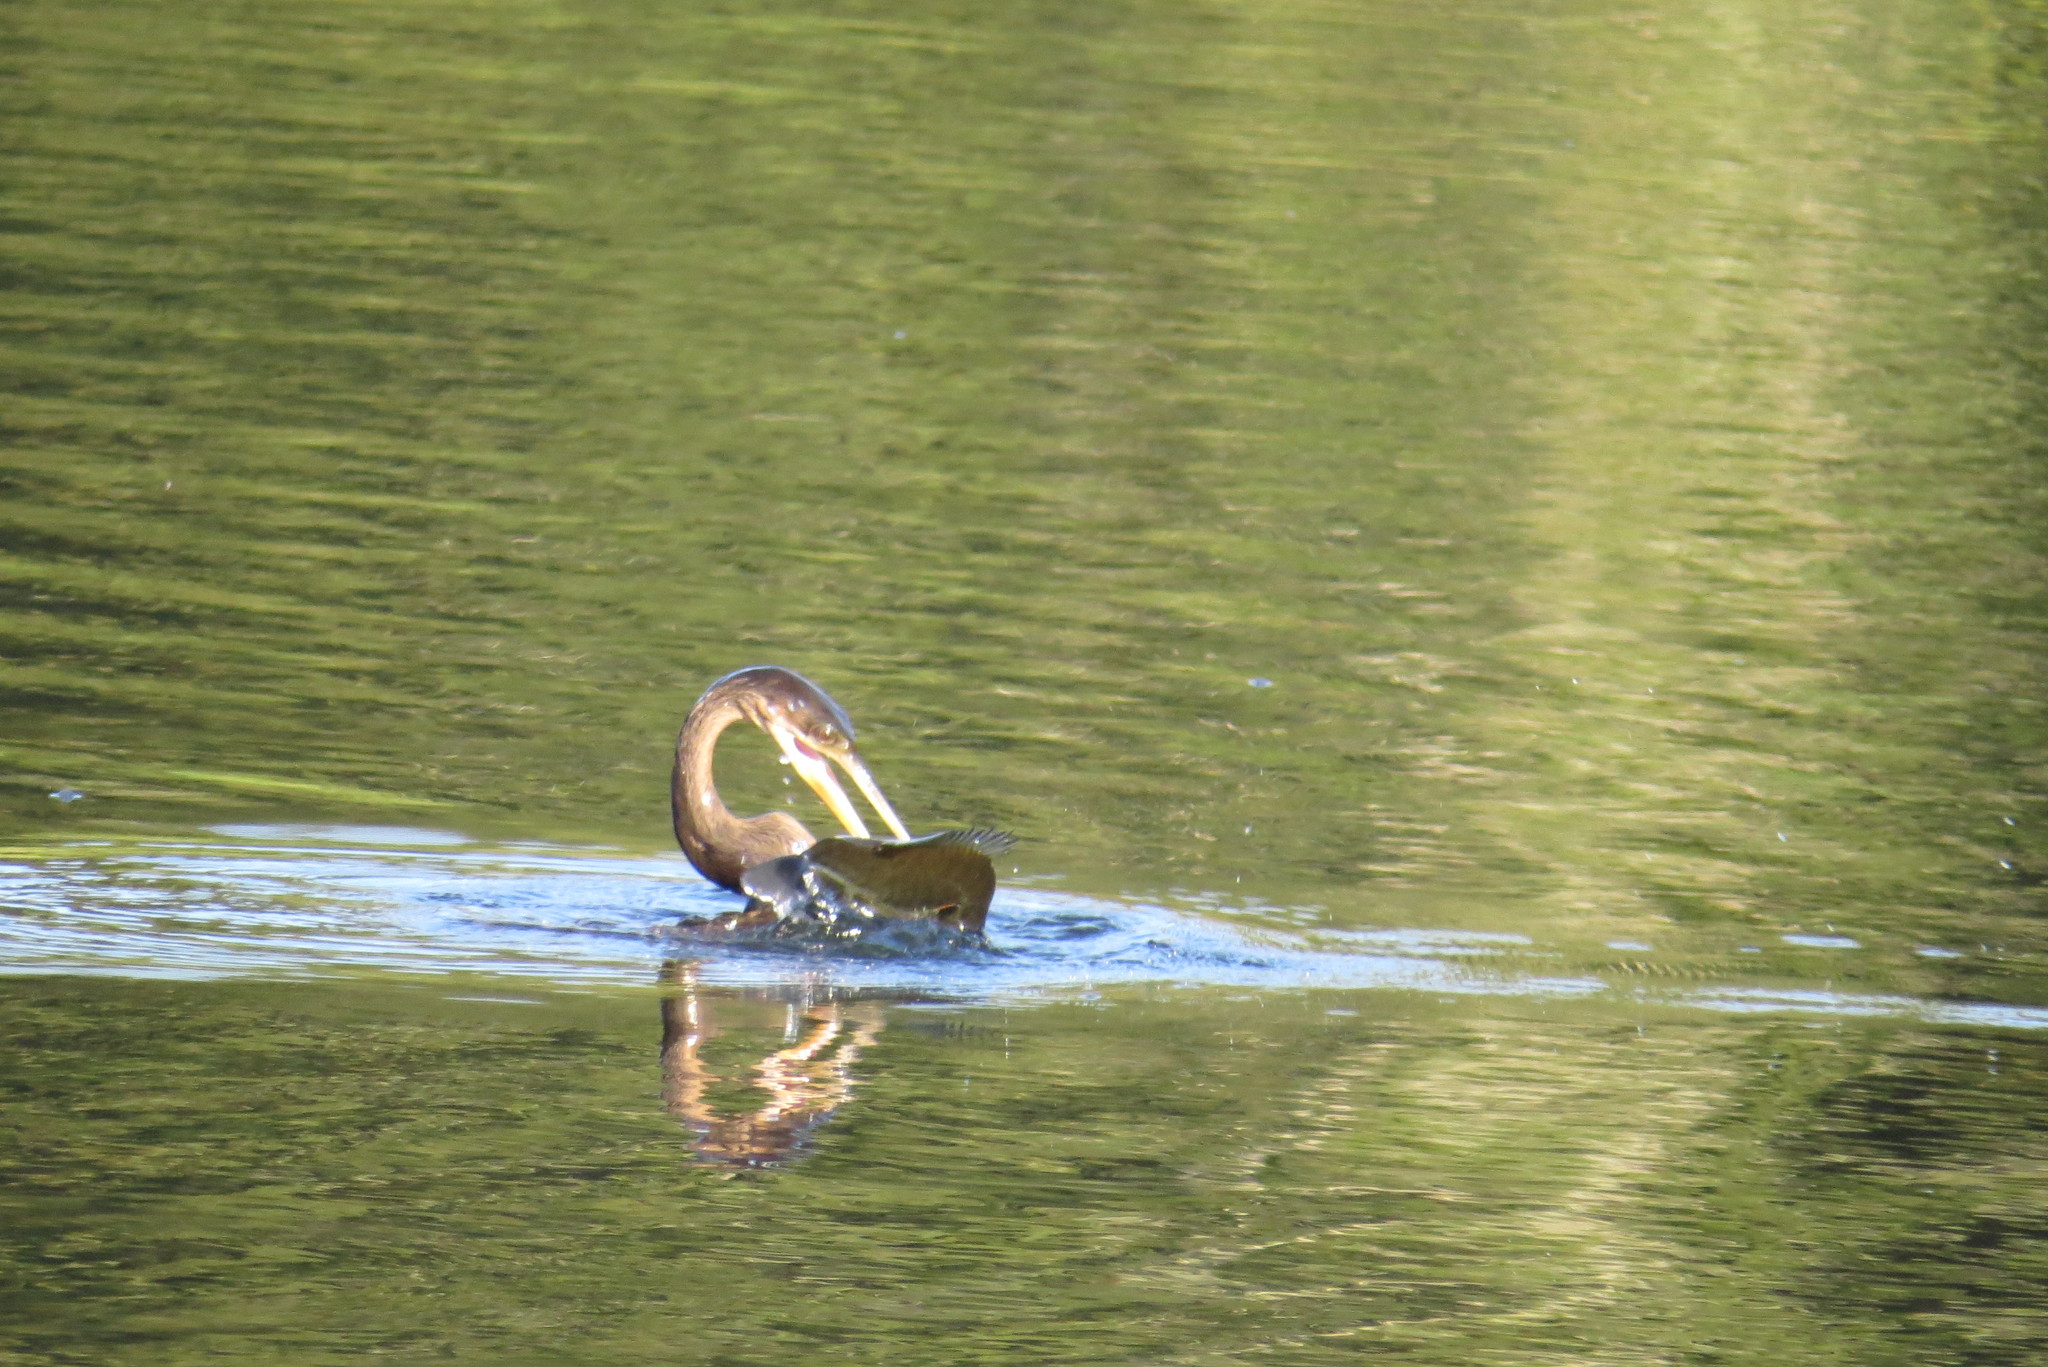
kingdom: Animalia
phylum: Chordata
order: Perciformes
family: Centrarchidae
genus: Lepomis
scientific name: Lepomis microlophus
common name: Redear sunfish
